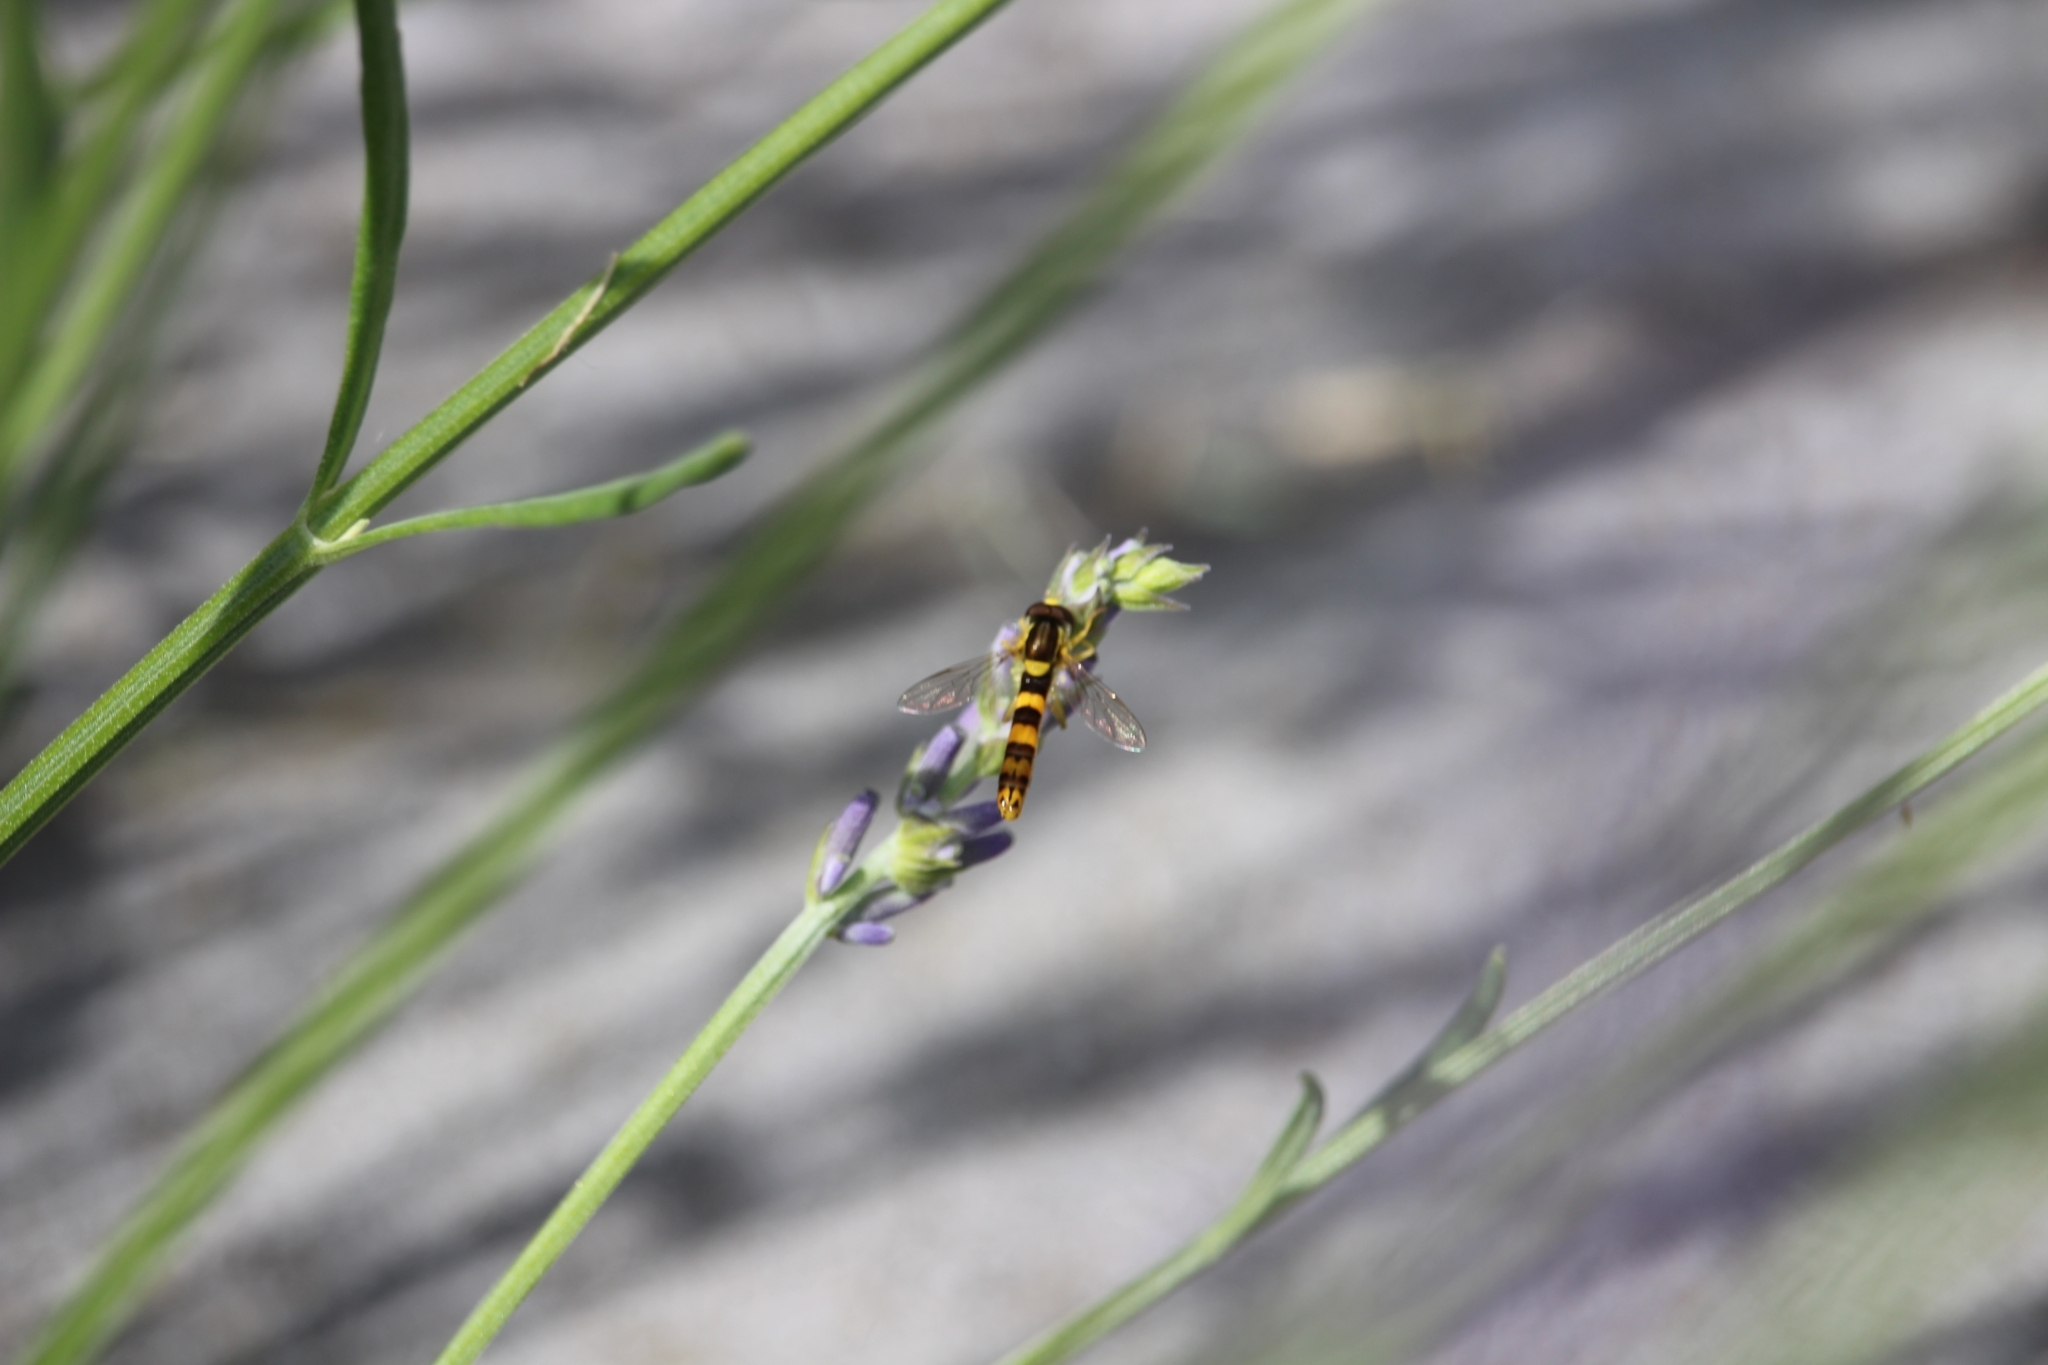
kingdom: Animalia
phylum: Arthropoda
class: Insecta
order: Diptera
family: Syrphidae
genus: Sphaerophoria
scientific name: Sphaerophoria scripta
